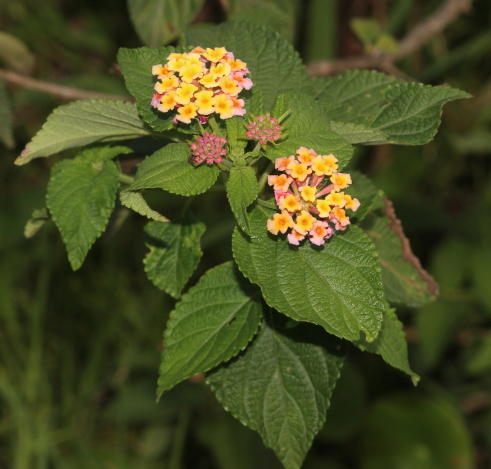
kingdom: Plantae
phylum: Tracheophyta
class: Magnoliopsida
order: Lamiales
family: Verbenaceae
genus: Lantana
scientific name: Lantana camara
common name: Lantana
